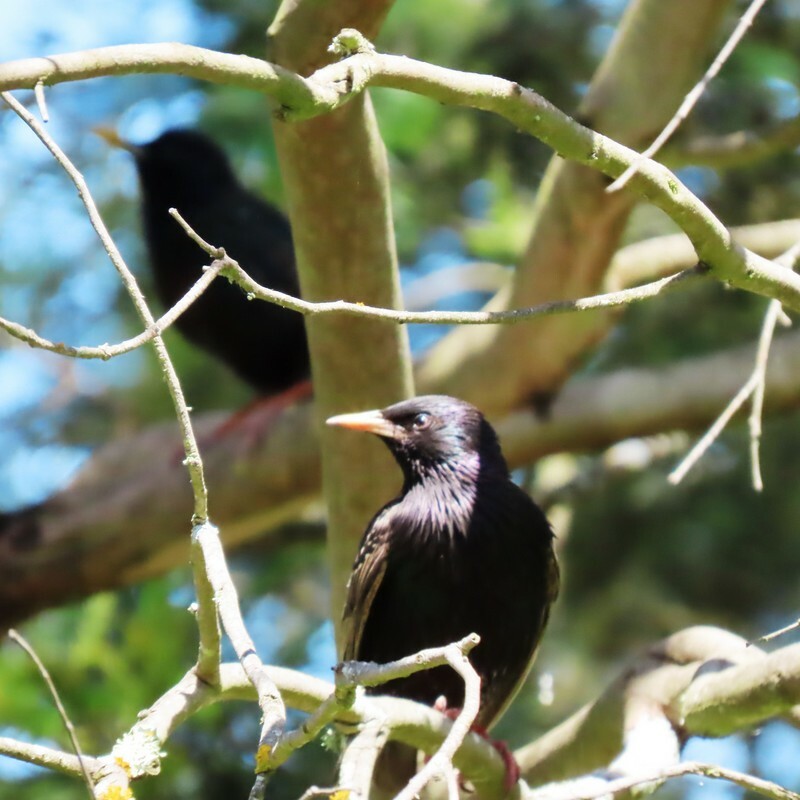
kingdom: Animalia
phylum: Chordata
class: Aves
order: Passeriformes
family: Sturnidae
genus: Sturnus
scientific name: Sturnus vulgaris
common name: Common starling
